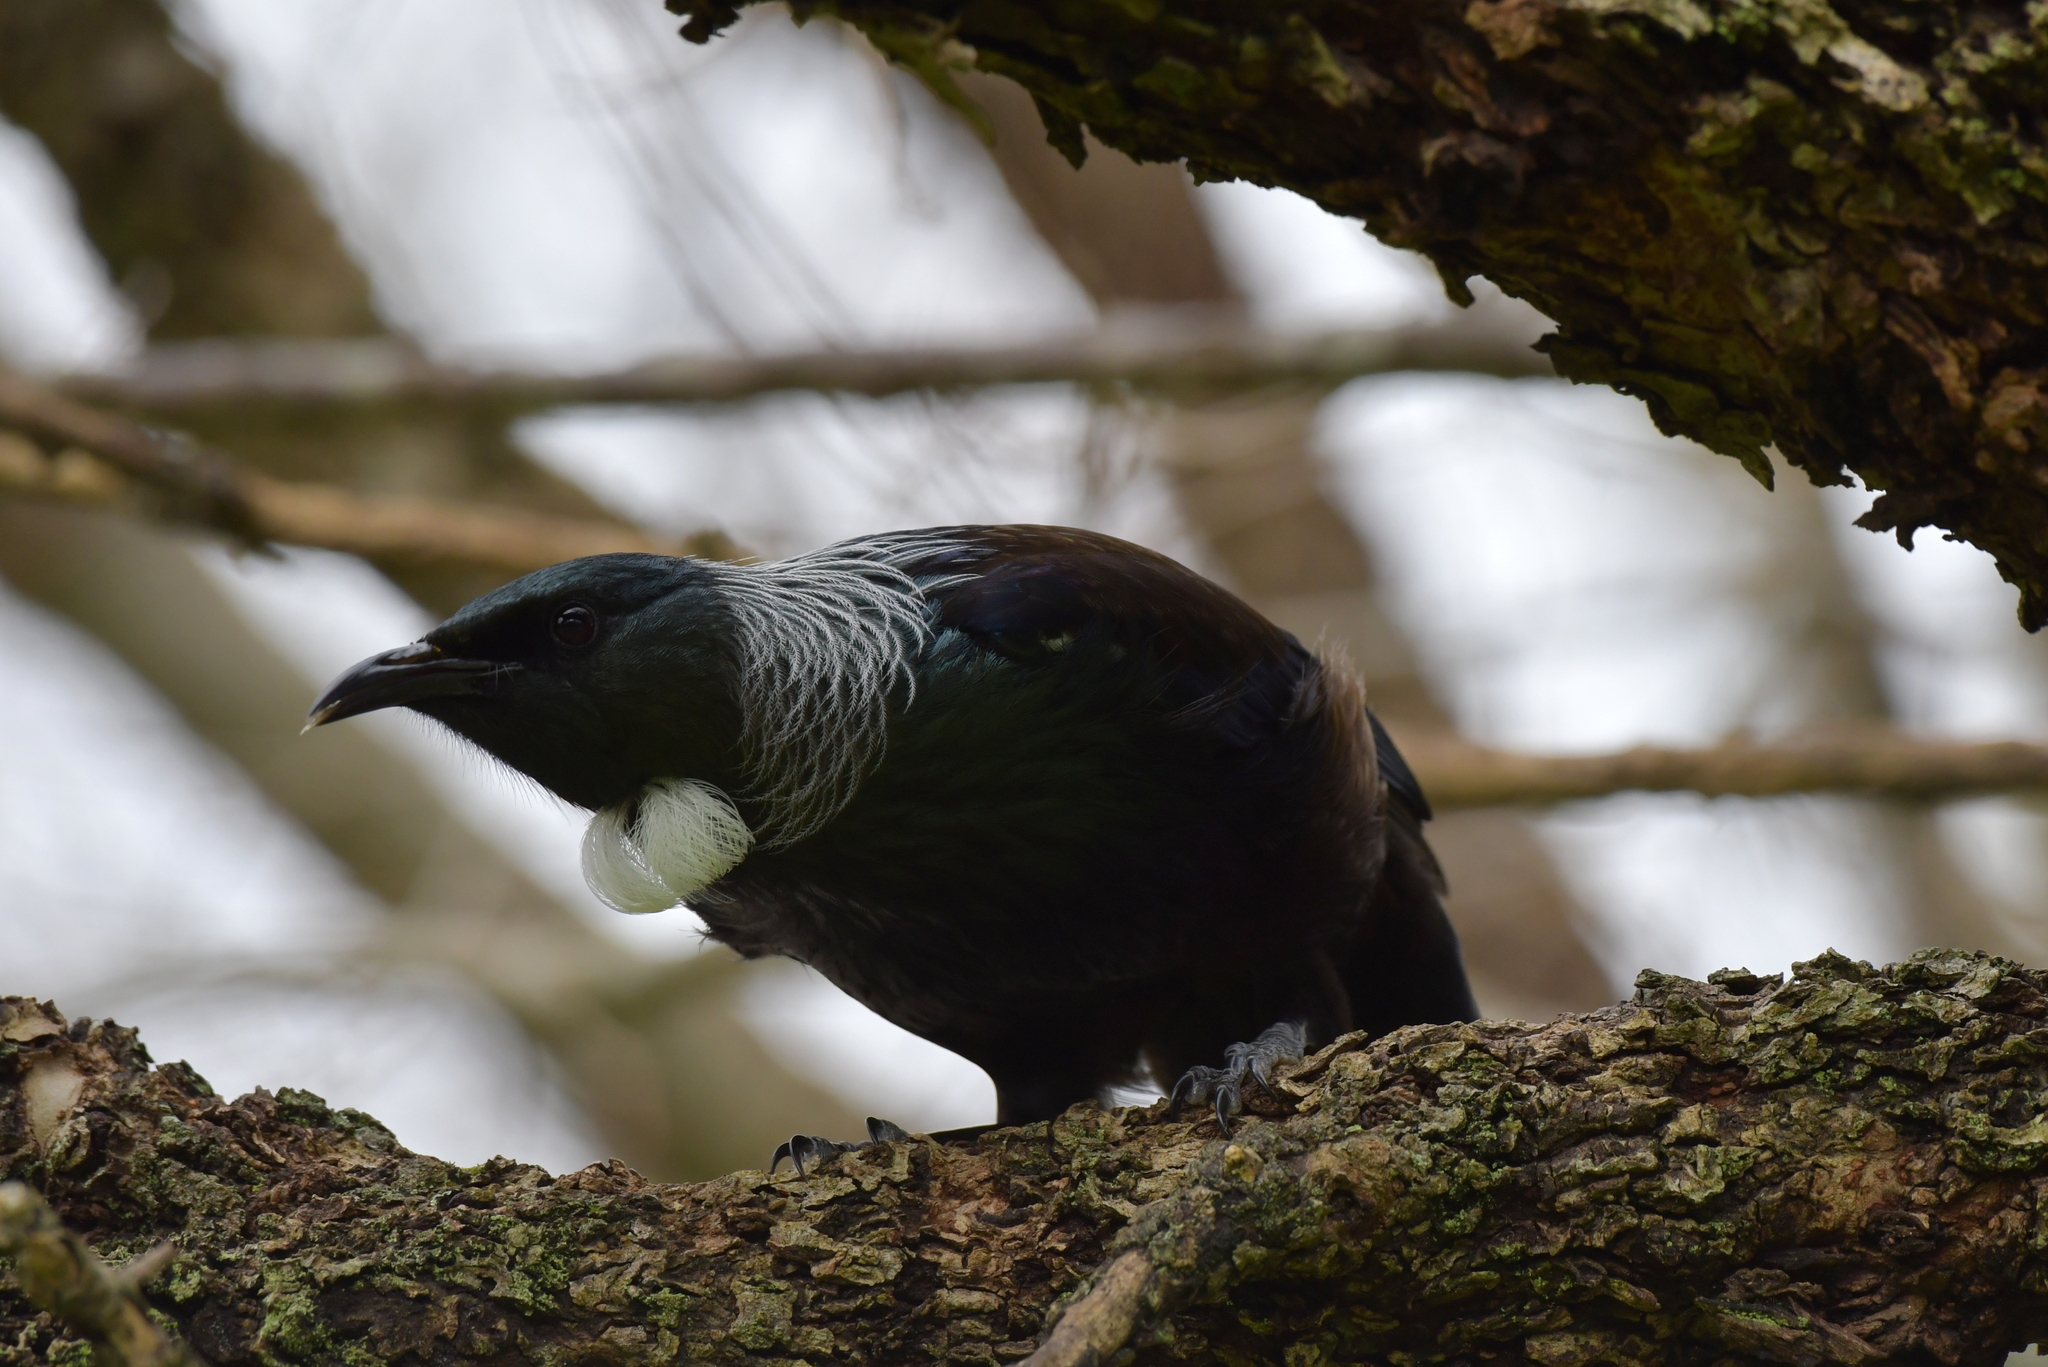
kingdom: Animalia
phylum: Chordata
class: Aves
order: Passeriformes
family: Meliphagidae
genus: Prosthemadera
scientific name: Prosthemadera novaeseelandiae
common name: Tui
